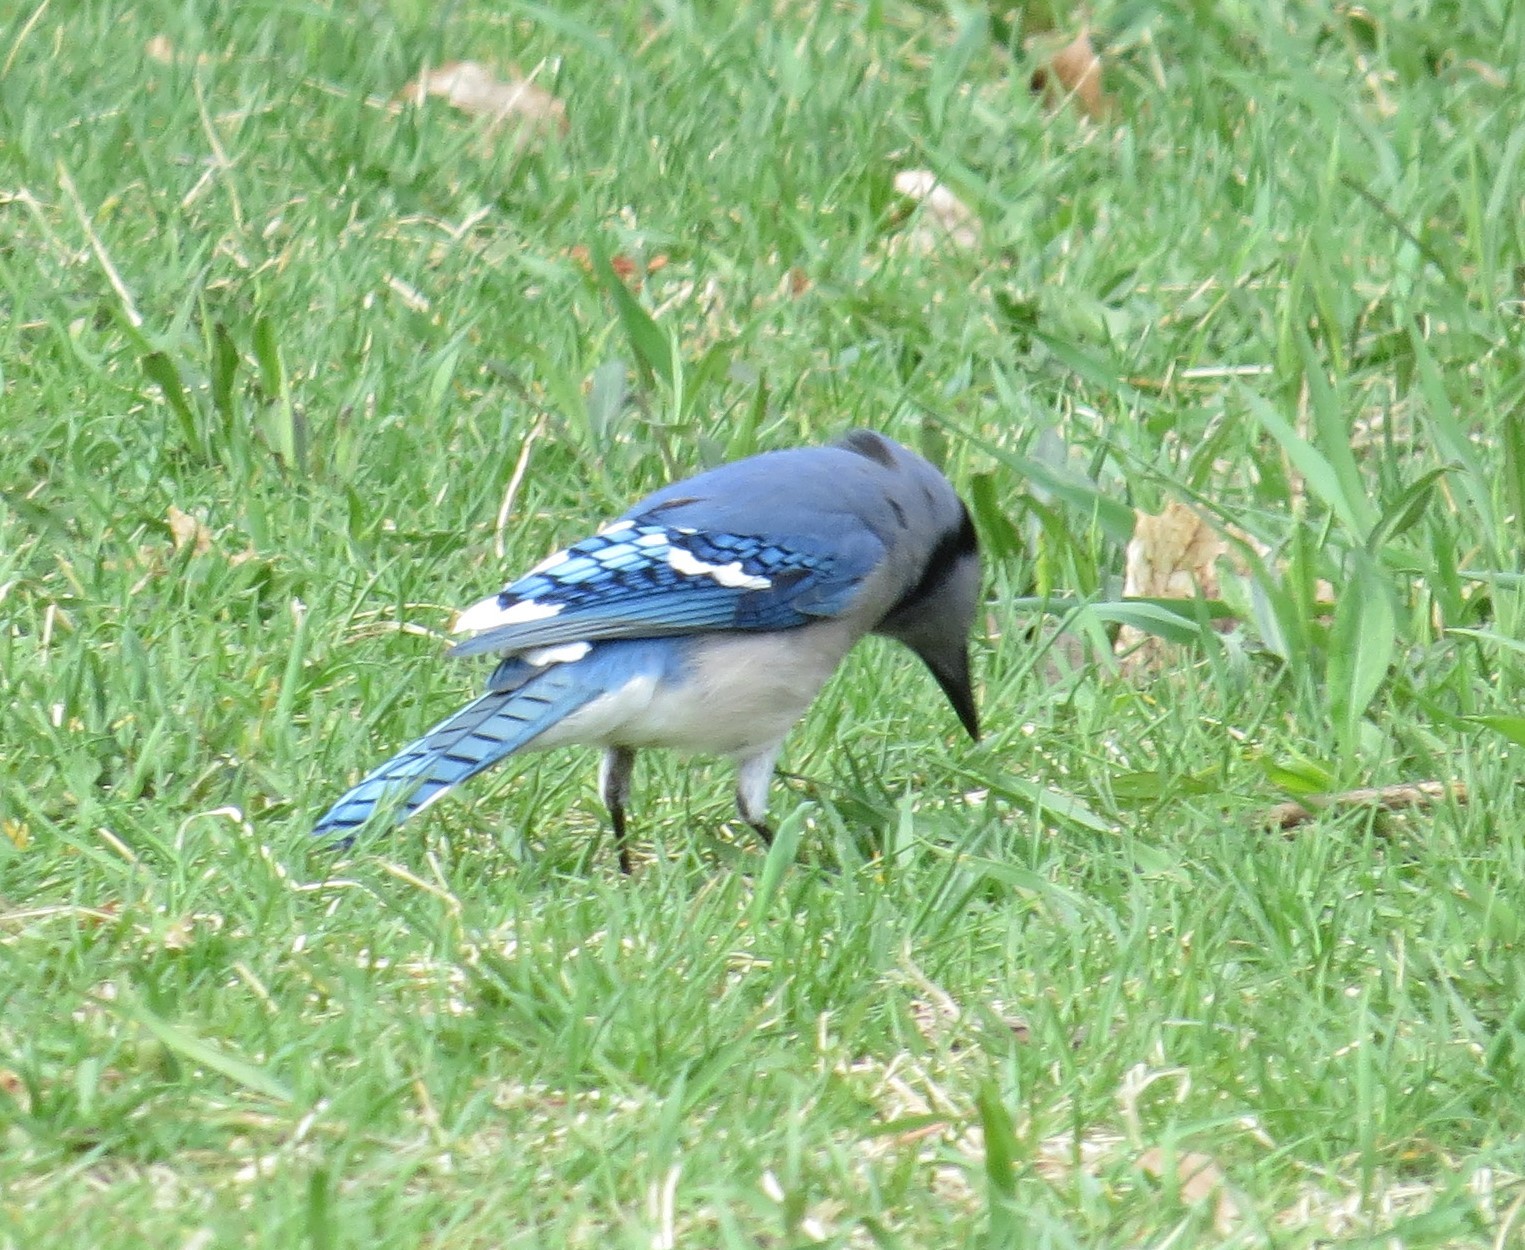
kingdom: Animalia
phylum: Chordata
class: Aves
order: Passeriformes
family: Corvidae
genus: Cyanocitta
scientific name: Cyanocitta cristata
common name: Blue jay
